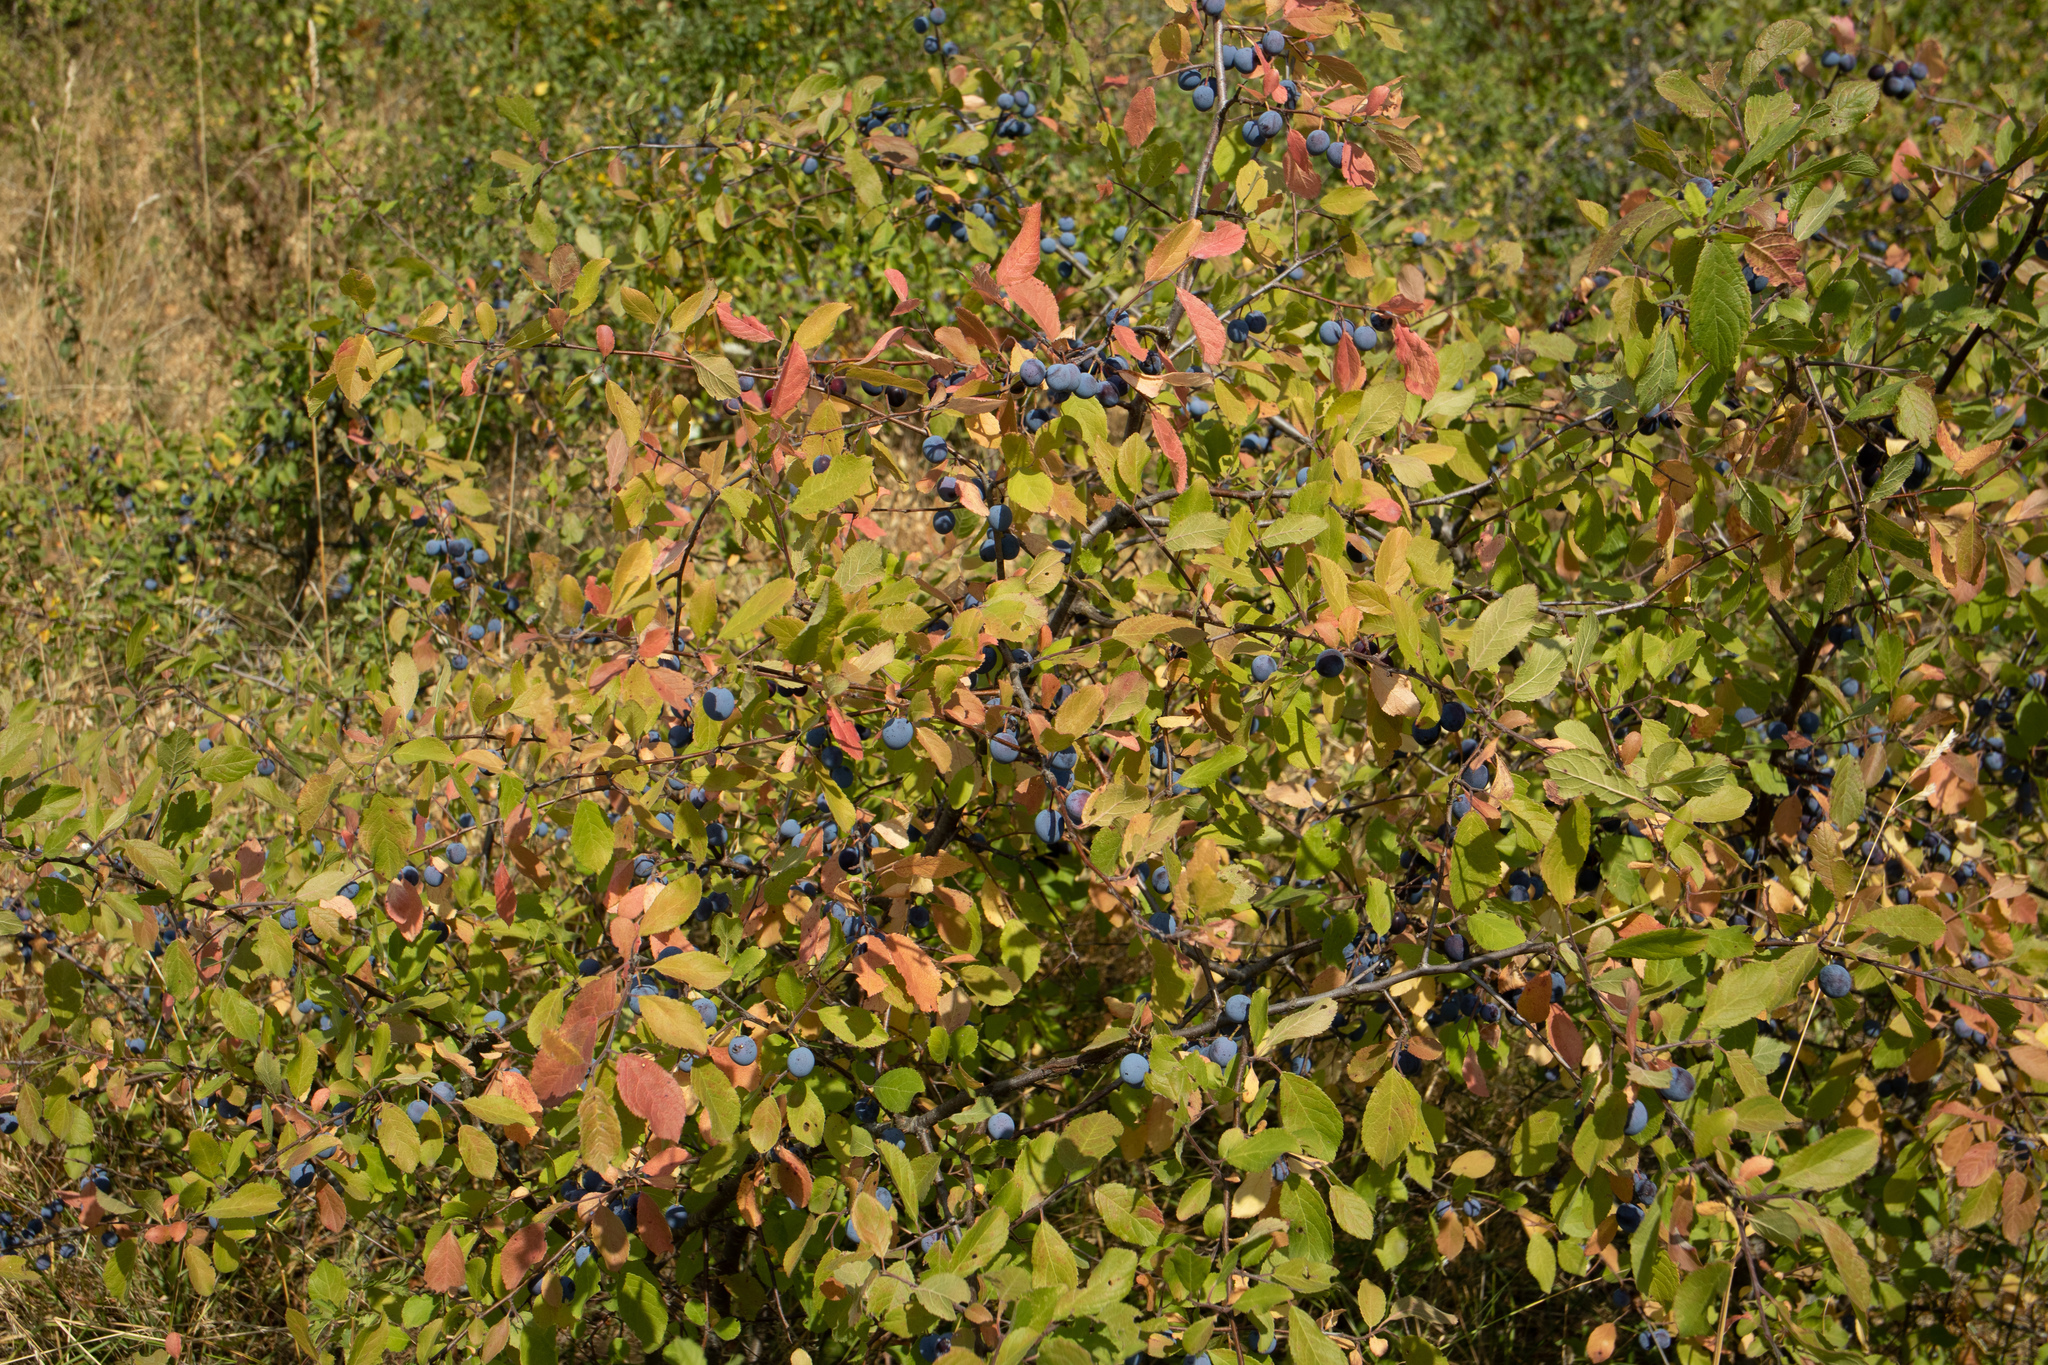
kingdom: Plantae
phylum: Tracheophyta
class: Magnoliopsida
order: Rosales
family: Rosaceae
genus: Prunus
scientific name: Prunus spinosa
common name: Blackthorn
